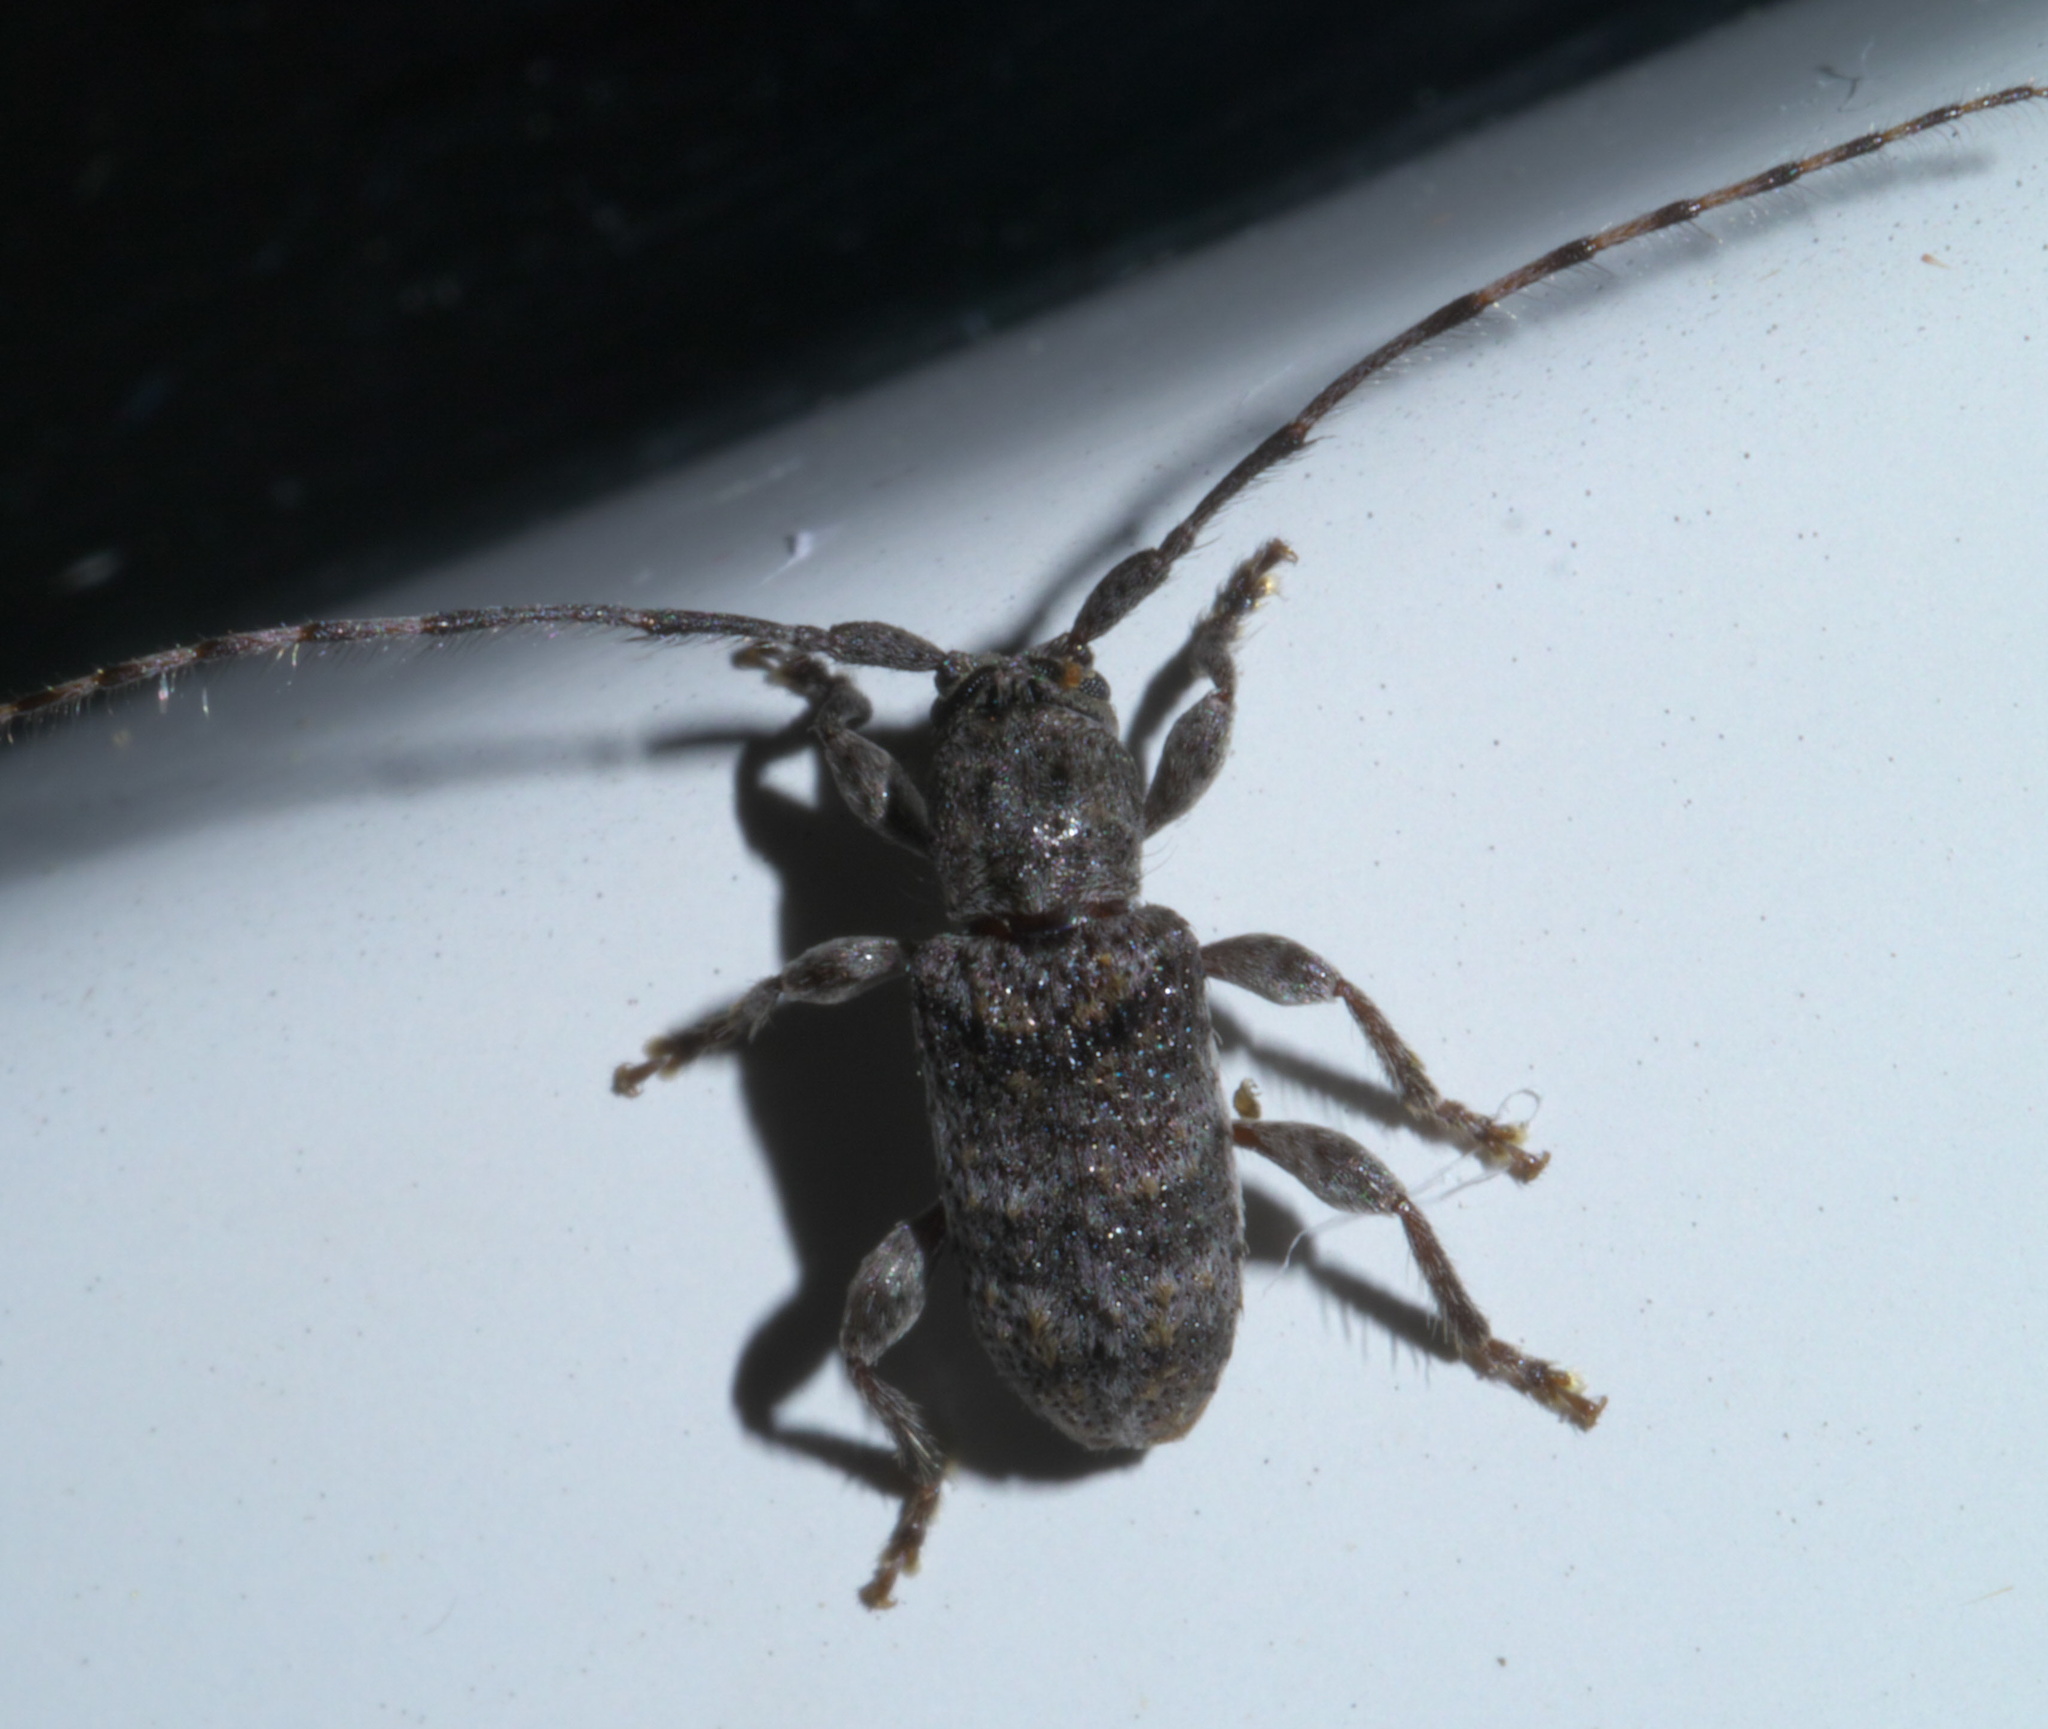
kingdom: Animalia
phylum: Arthropoda
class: Insecta
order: Coleoptera
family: Cerambycidae
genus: Ecyrus
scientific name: Ecyrus dasycerus
